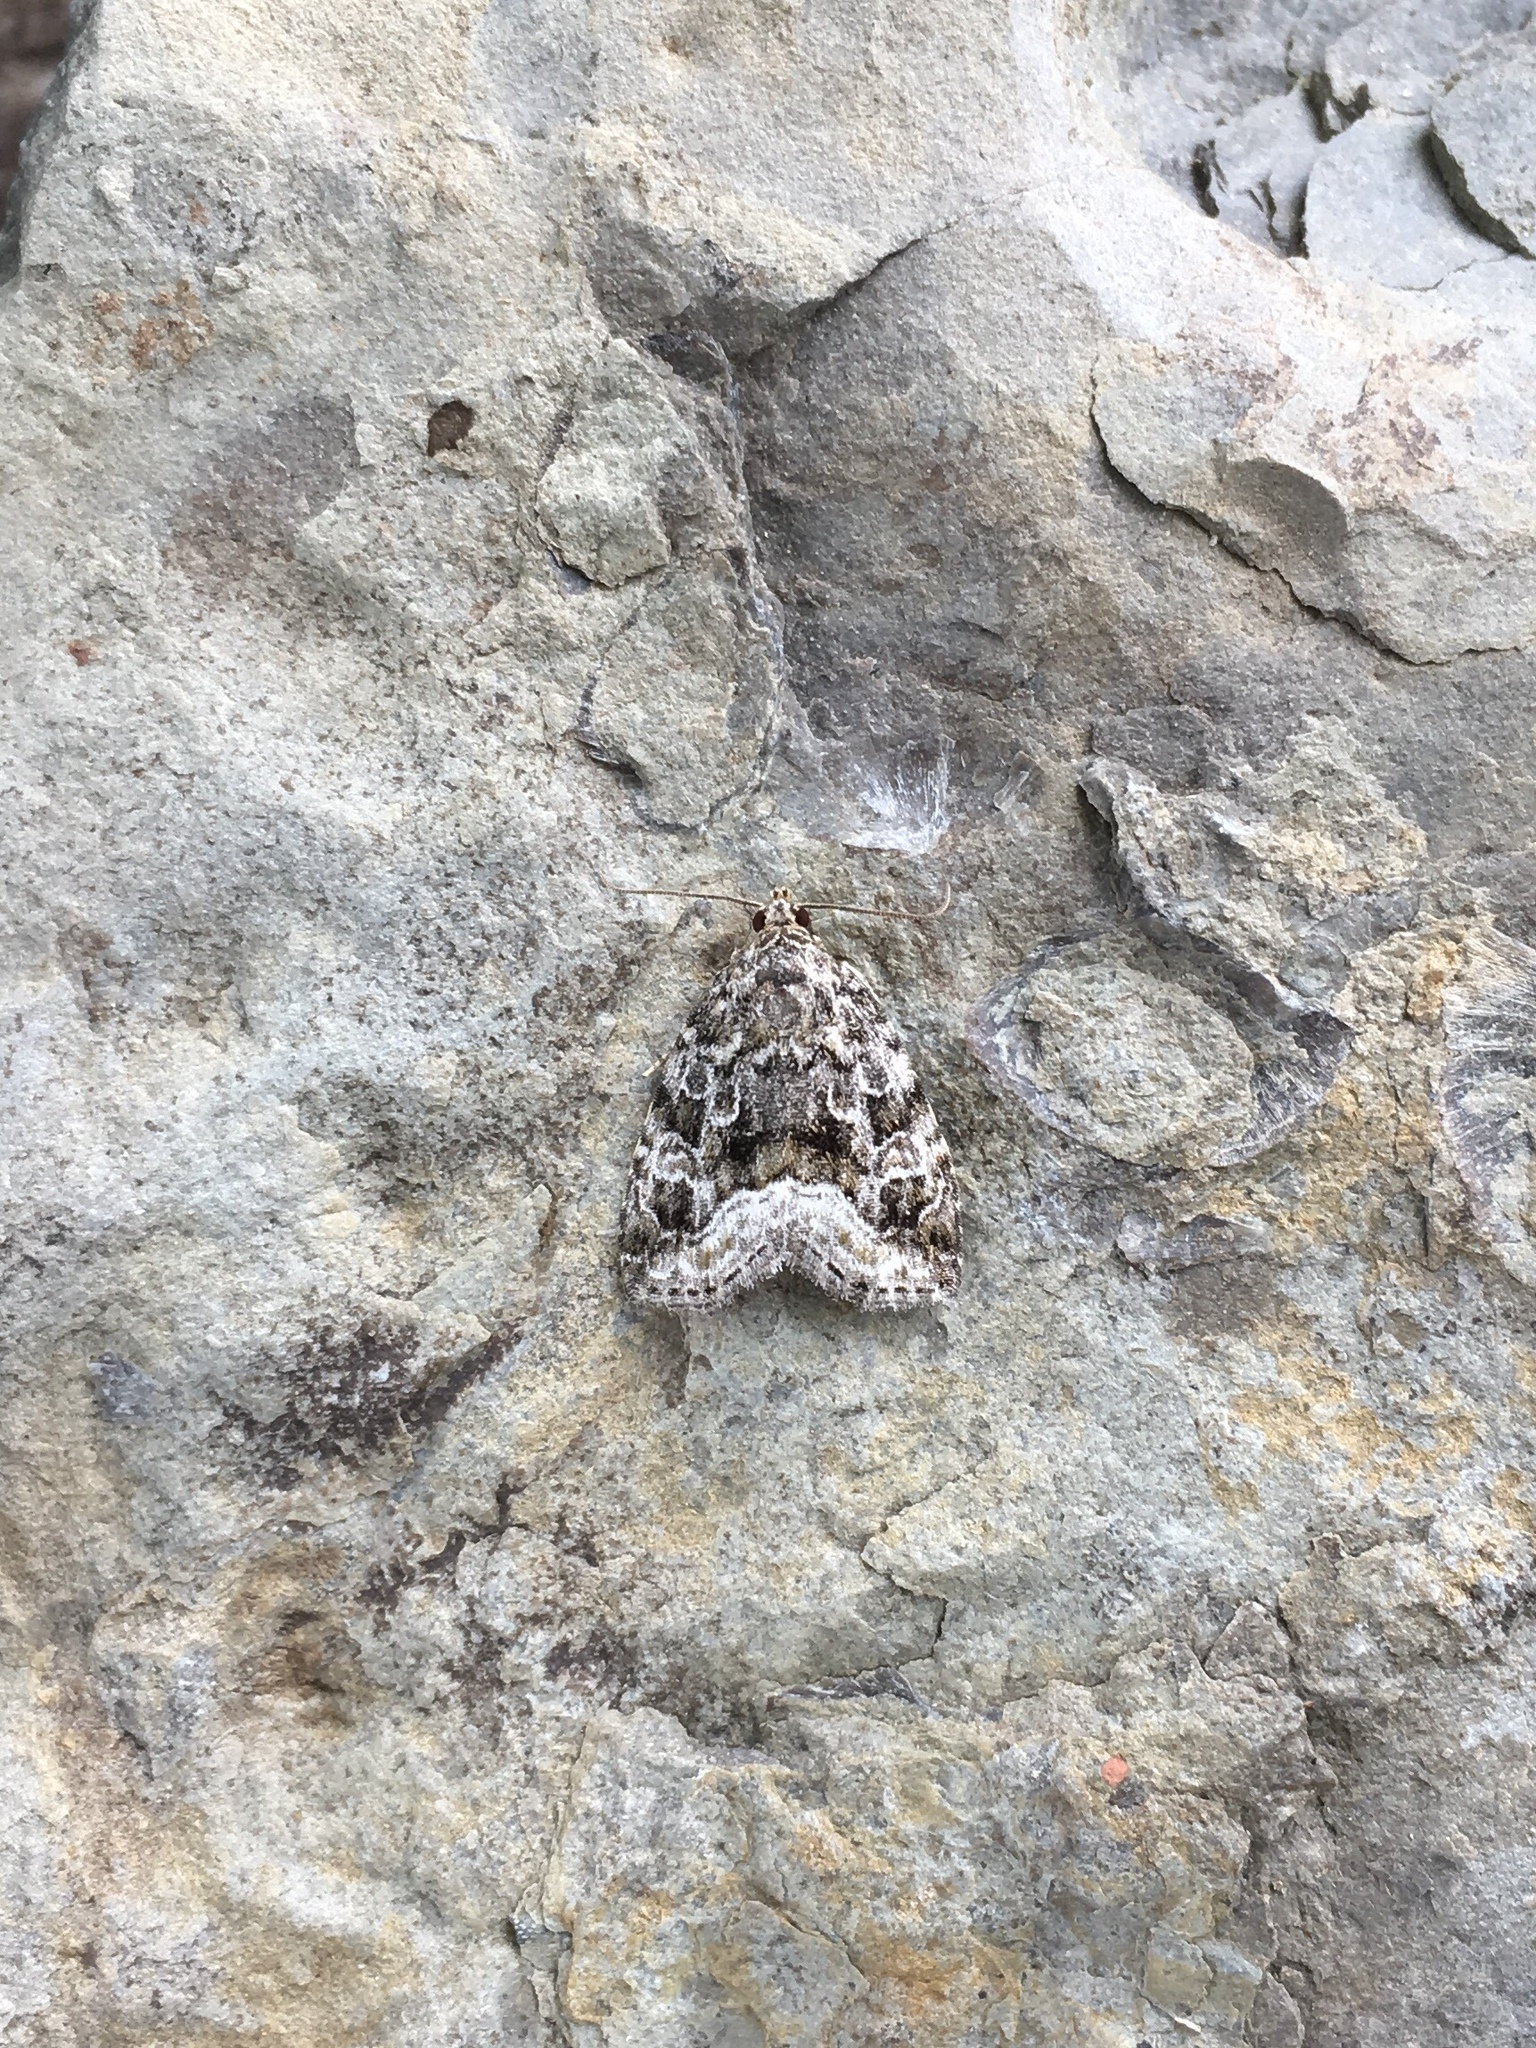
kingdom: Animalia
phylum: Arthropoda
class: Insecta
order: Lepidoptera
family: Noctuidae
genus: Protodeltote
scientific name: Protodeltote muscosula
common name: Large mossy glyph
